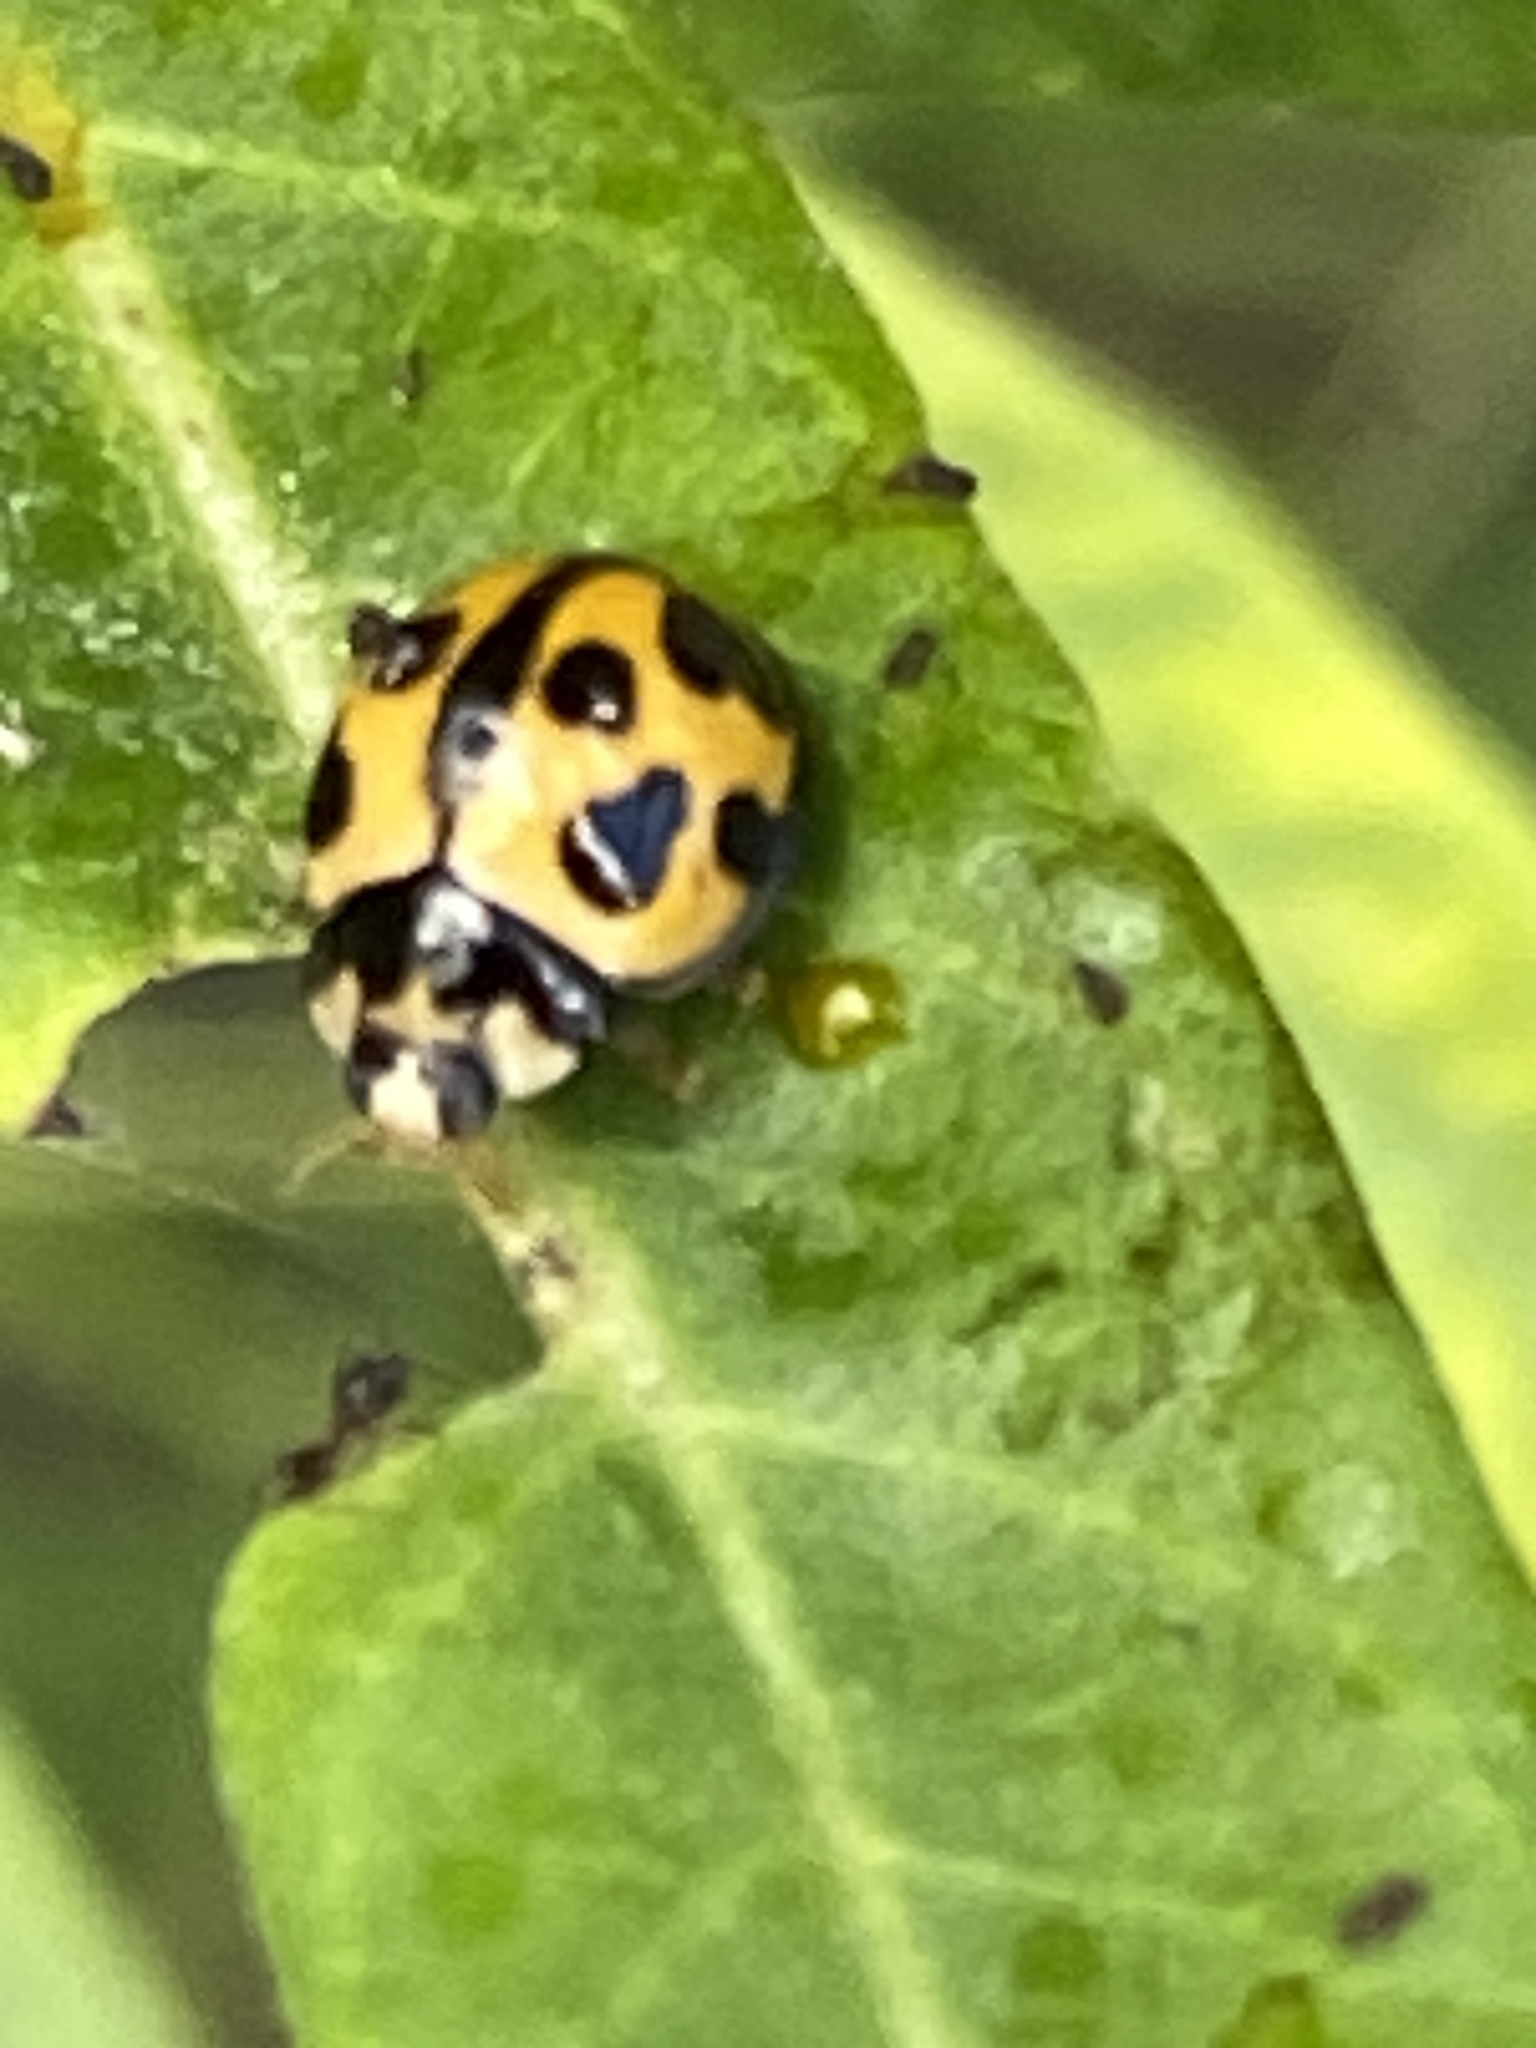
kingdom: Animalia
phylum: Arthropoda
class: Insecta
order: Coleoptera
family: Coccinellidae
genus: Coelophora
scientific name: Coelophora inaequalis
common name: Common australian lady beetle
